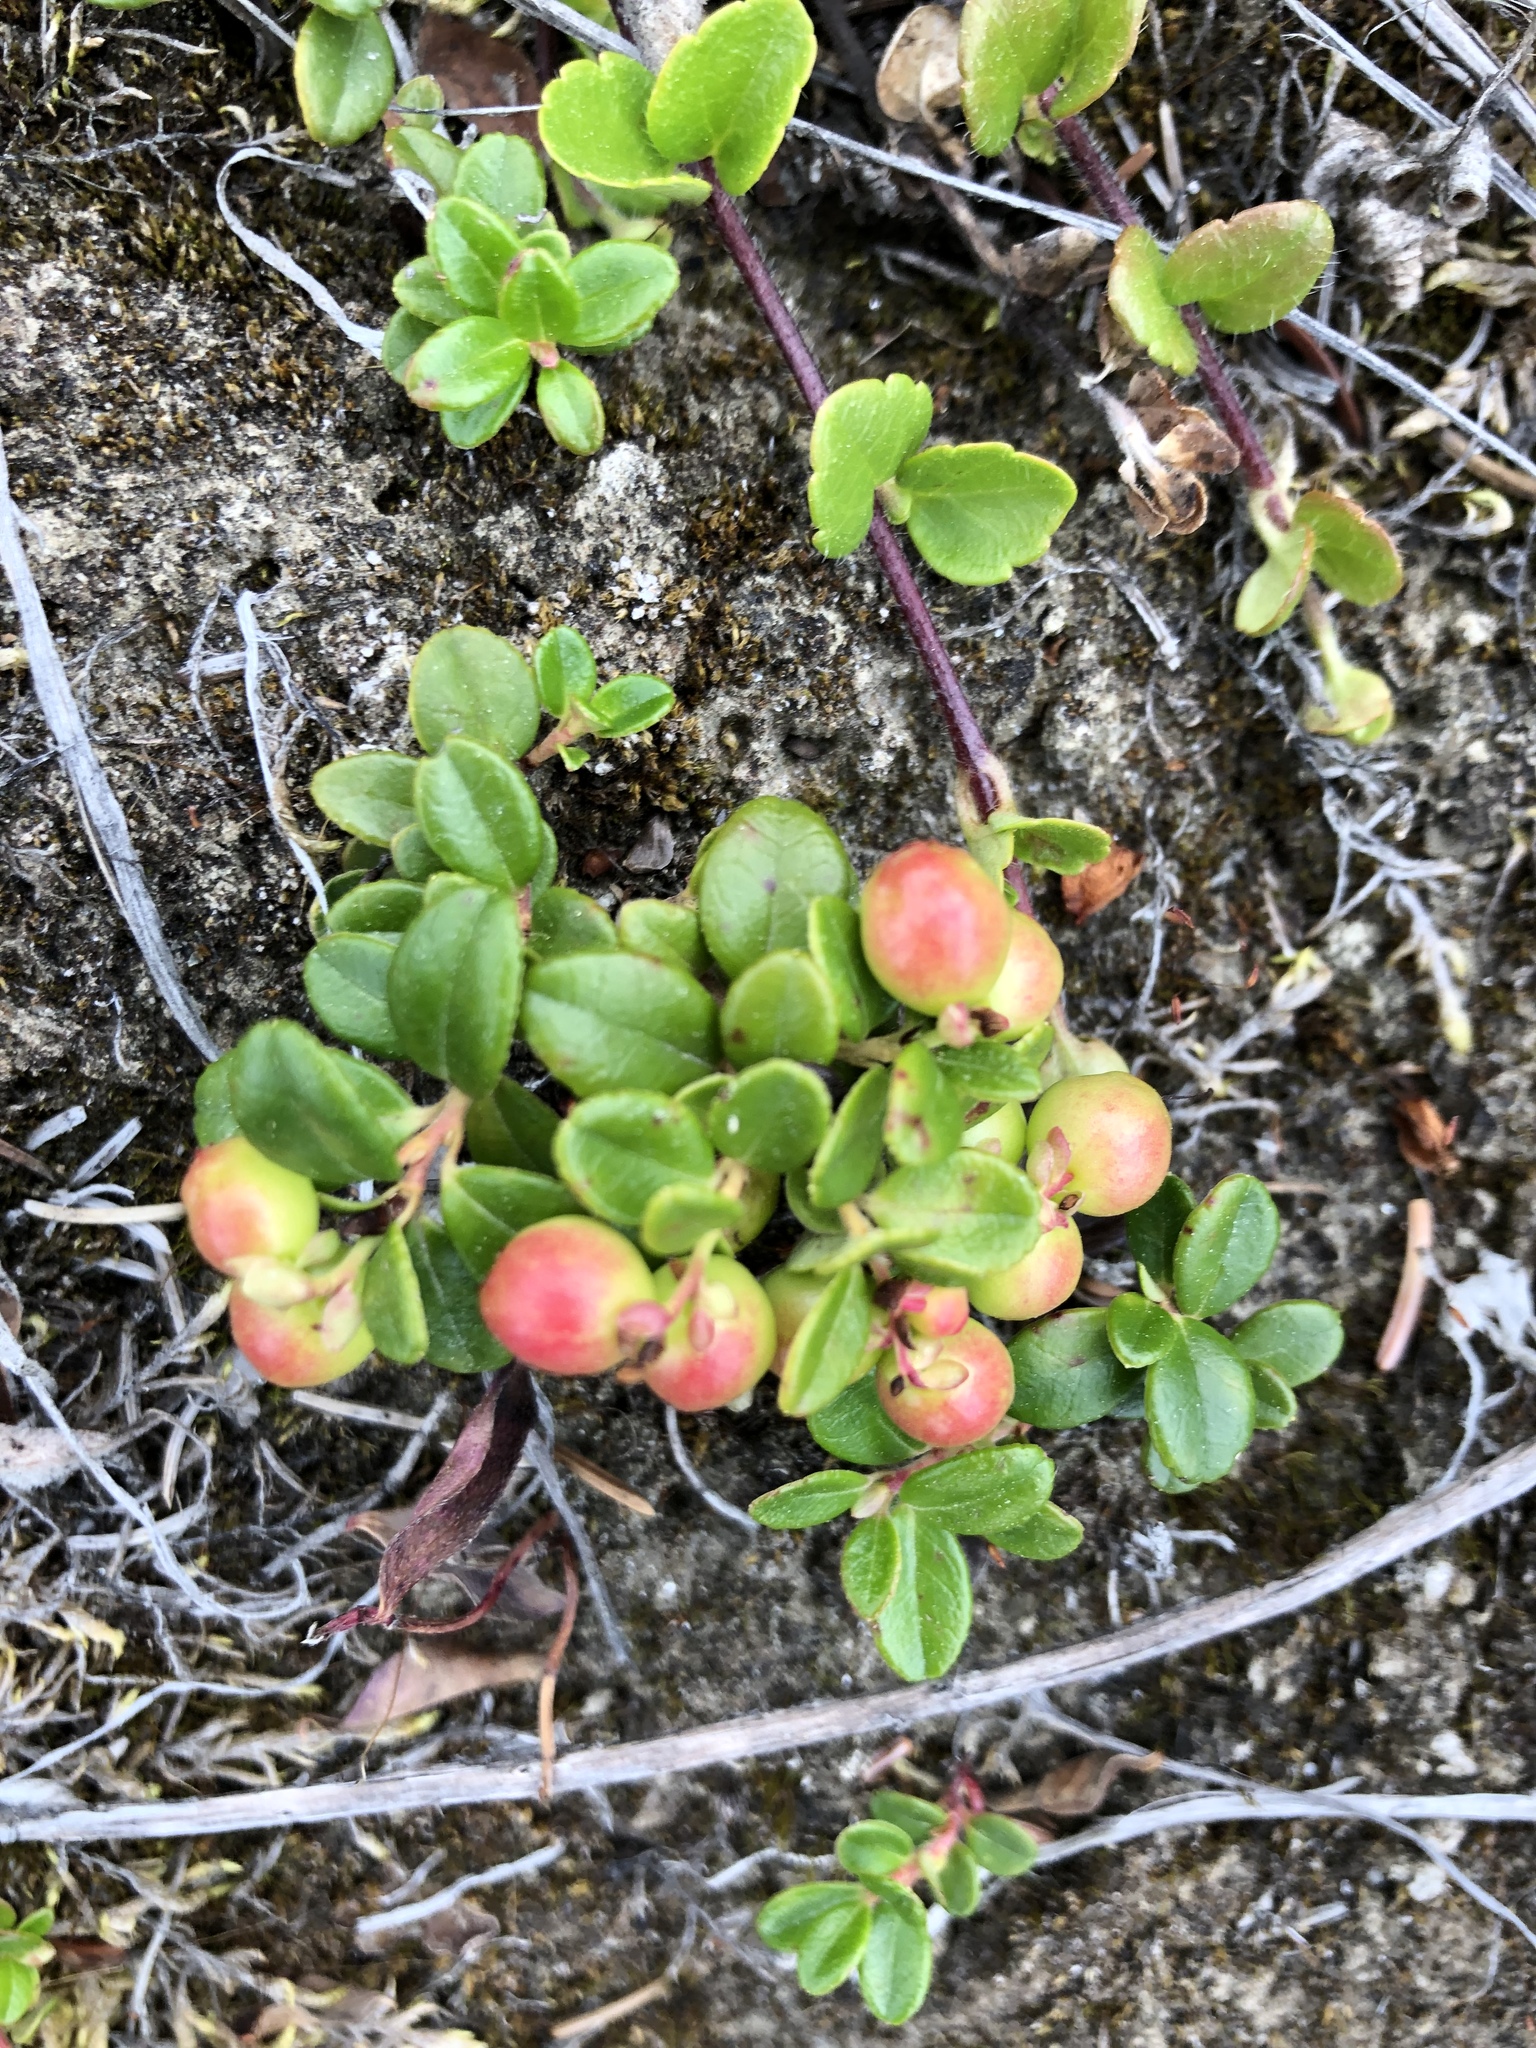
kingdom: Plantae
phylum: Tracheophyta
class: Magnoliopsida
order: Ericales
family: Ericaceae
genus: Vaccinium
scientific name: Vaccinium vitis-idaea
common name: Cowberry
